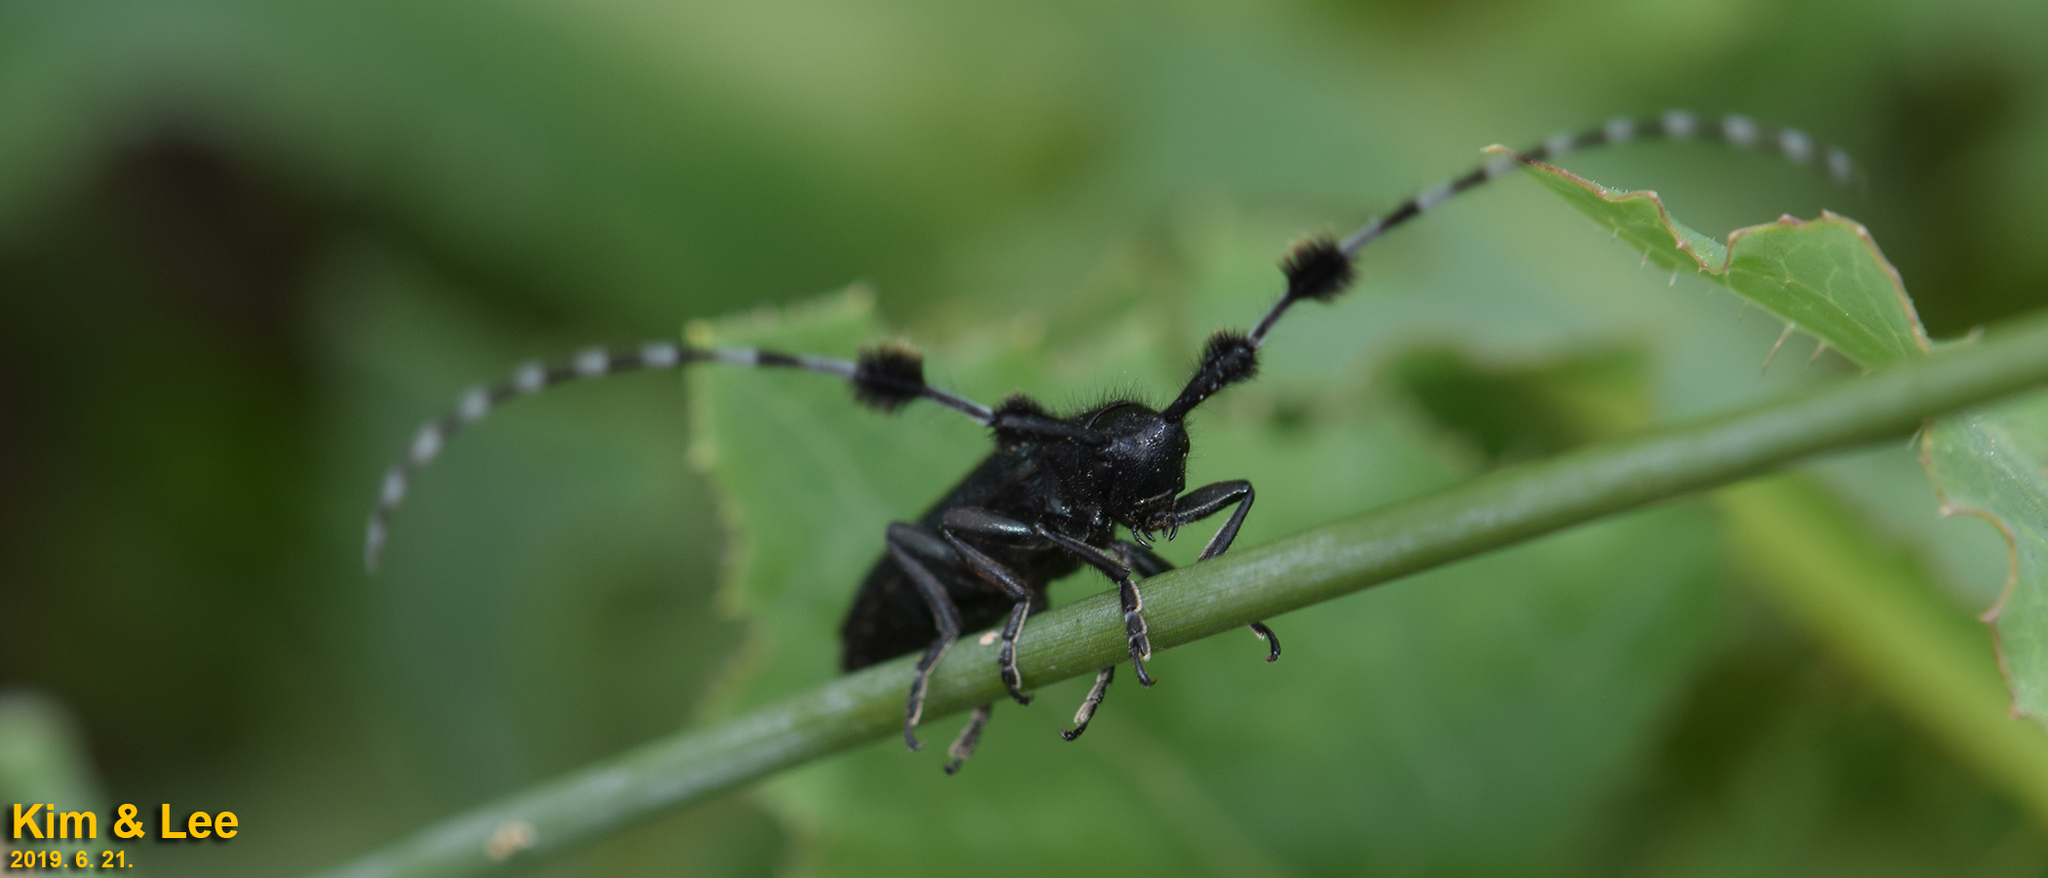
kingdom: Animalia
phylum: Arthropoda
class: Insecta
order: Coleoptera
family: Cerambycidae
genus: Agapanthia
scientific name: Agapanthia amurensis
